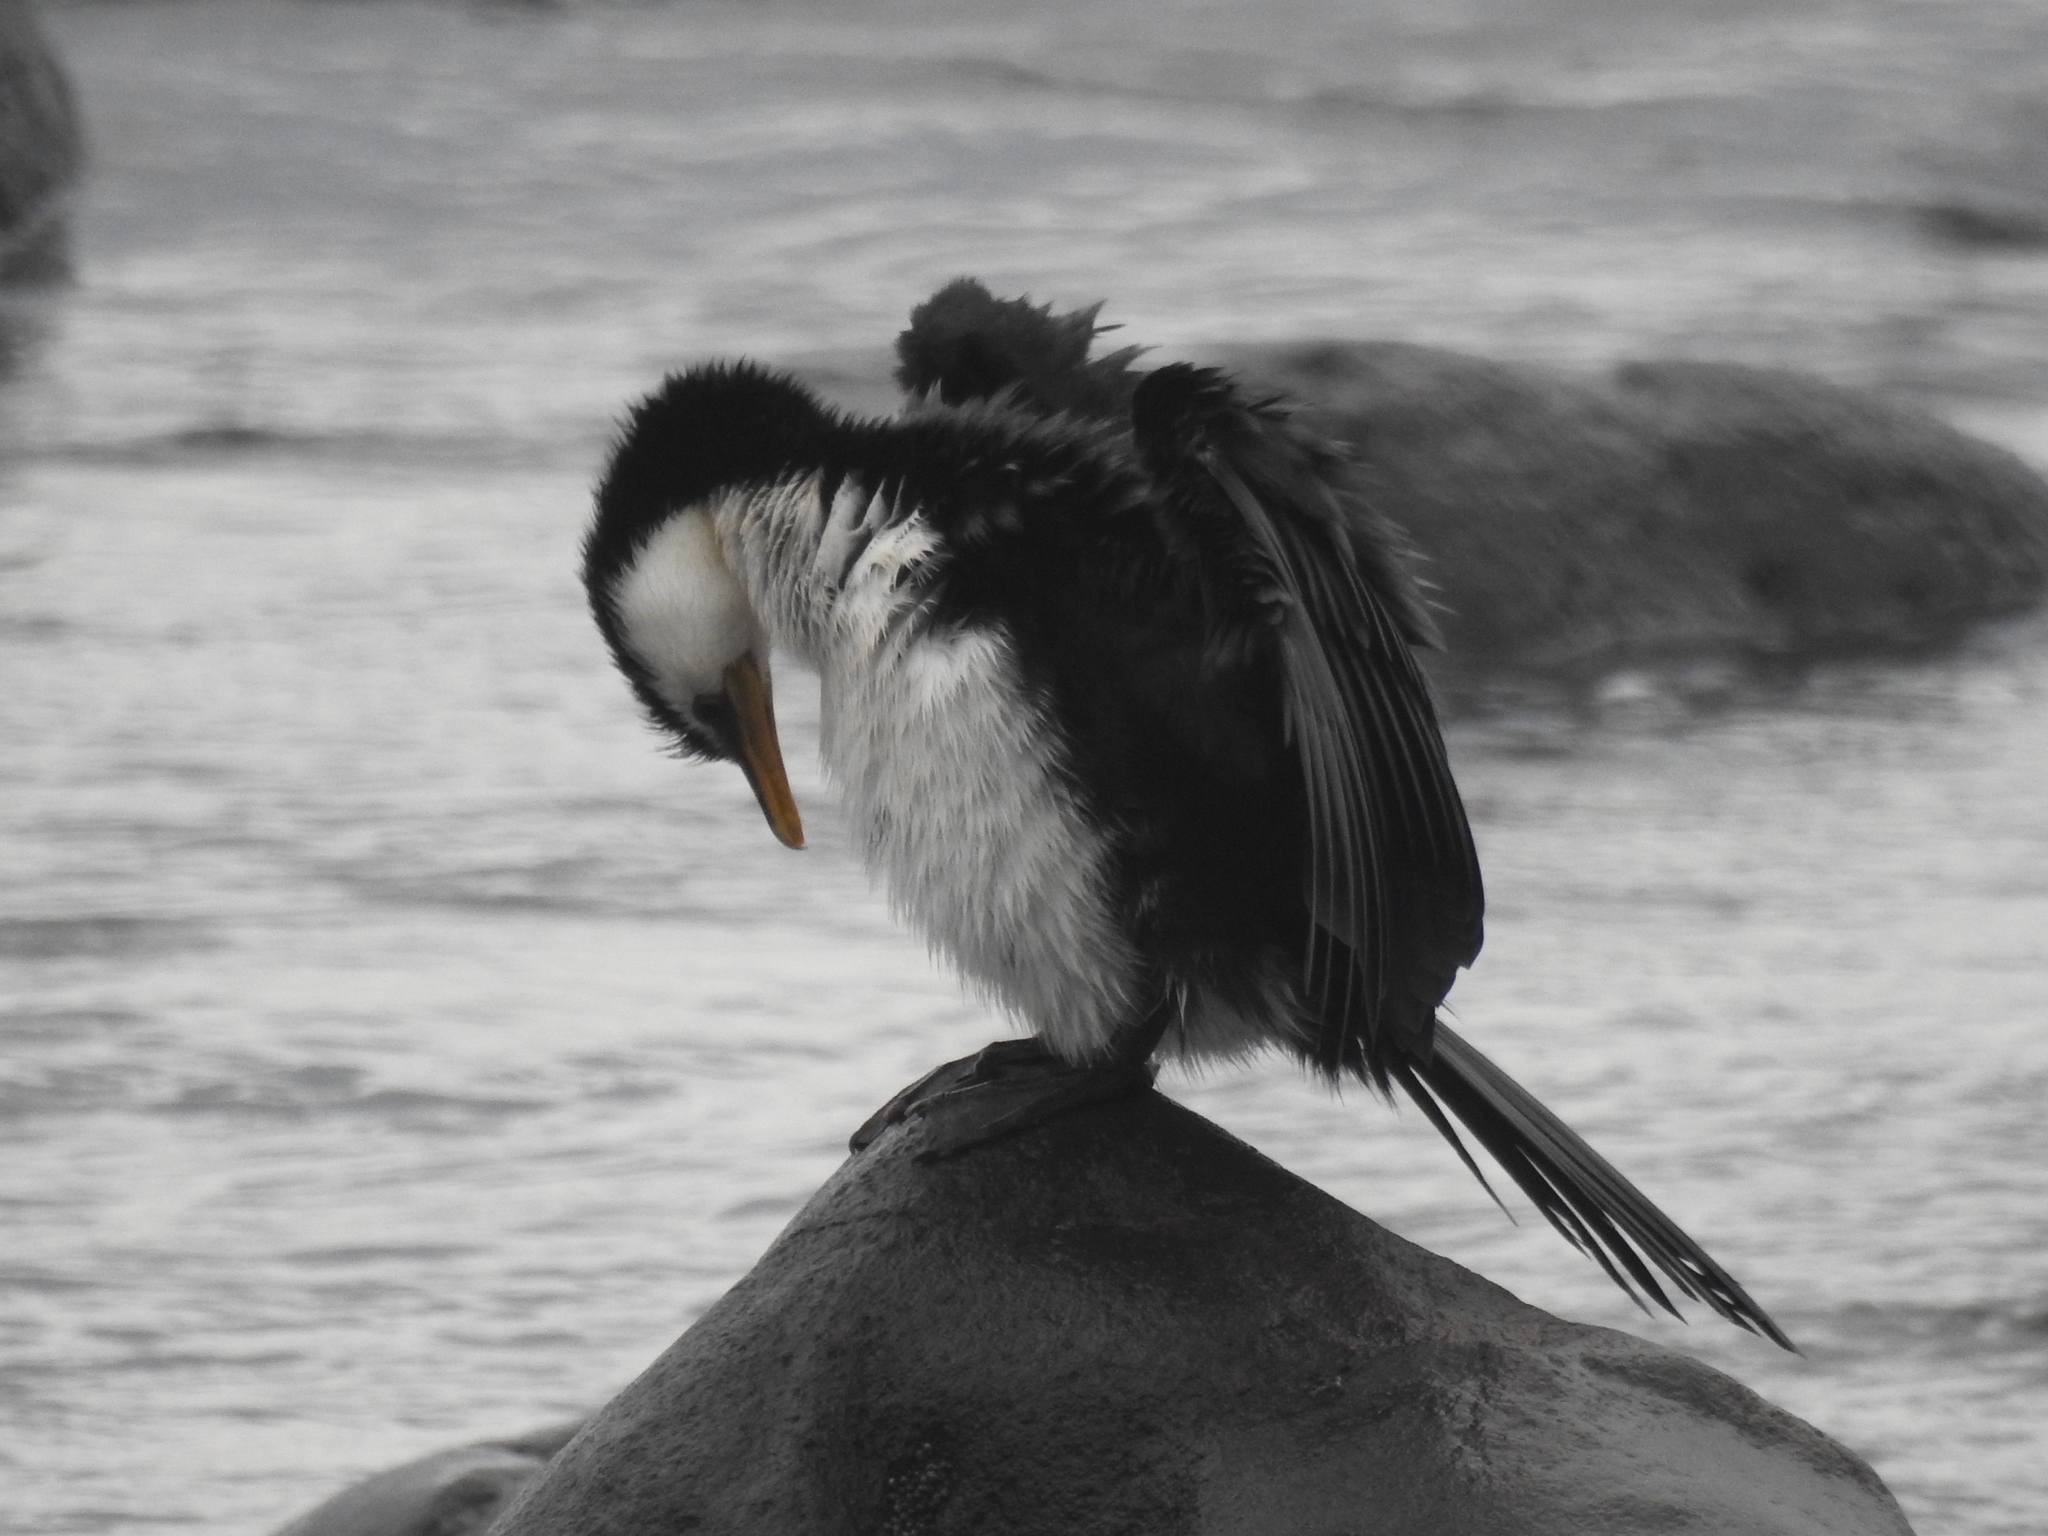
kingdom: Animalia
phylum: Chordata
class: Aves
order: Suliformes
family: Phalacrocoracidae
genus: Microcarbo
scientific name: Microcarbo melanoleucos
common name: Little pied cormorant
